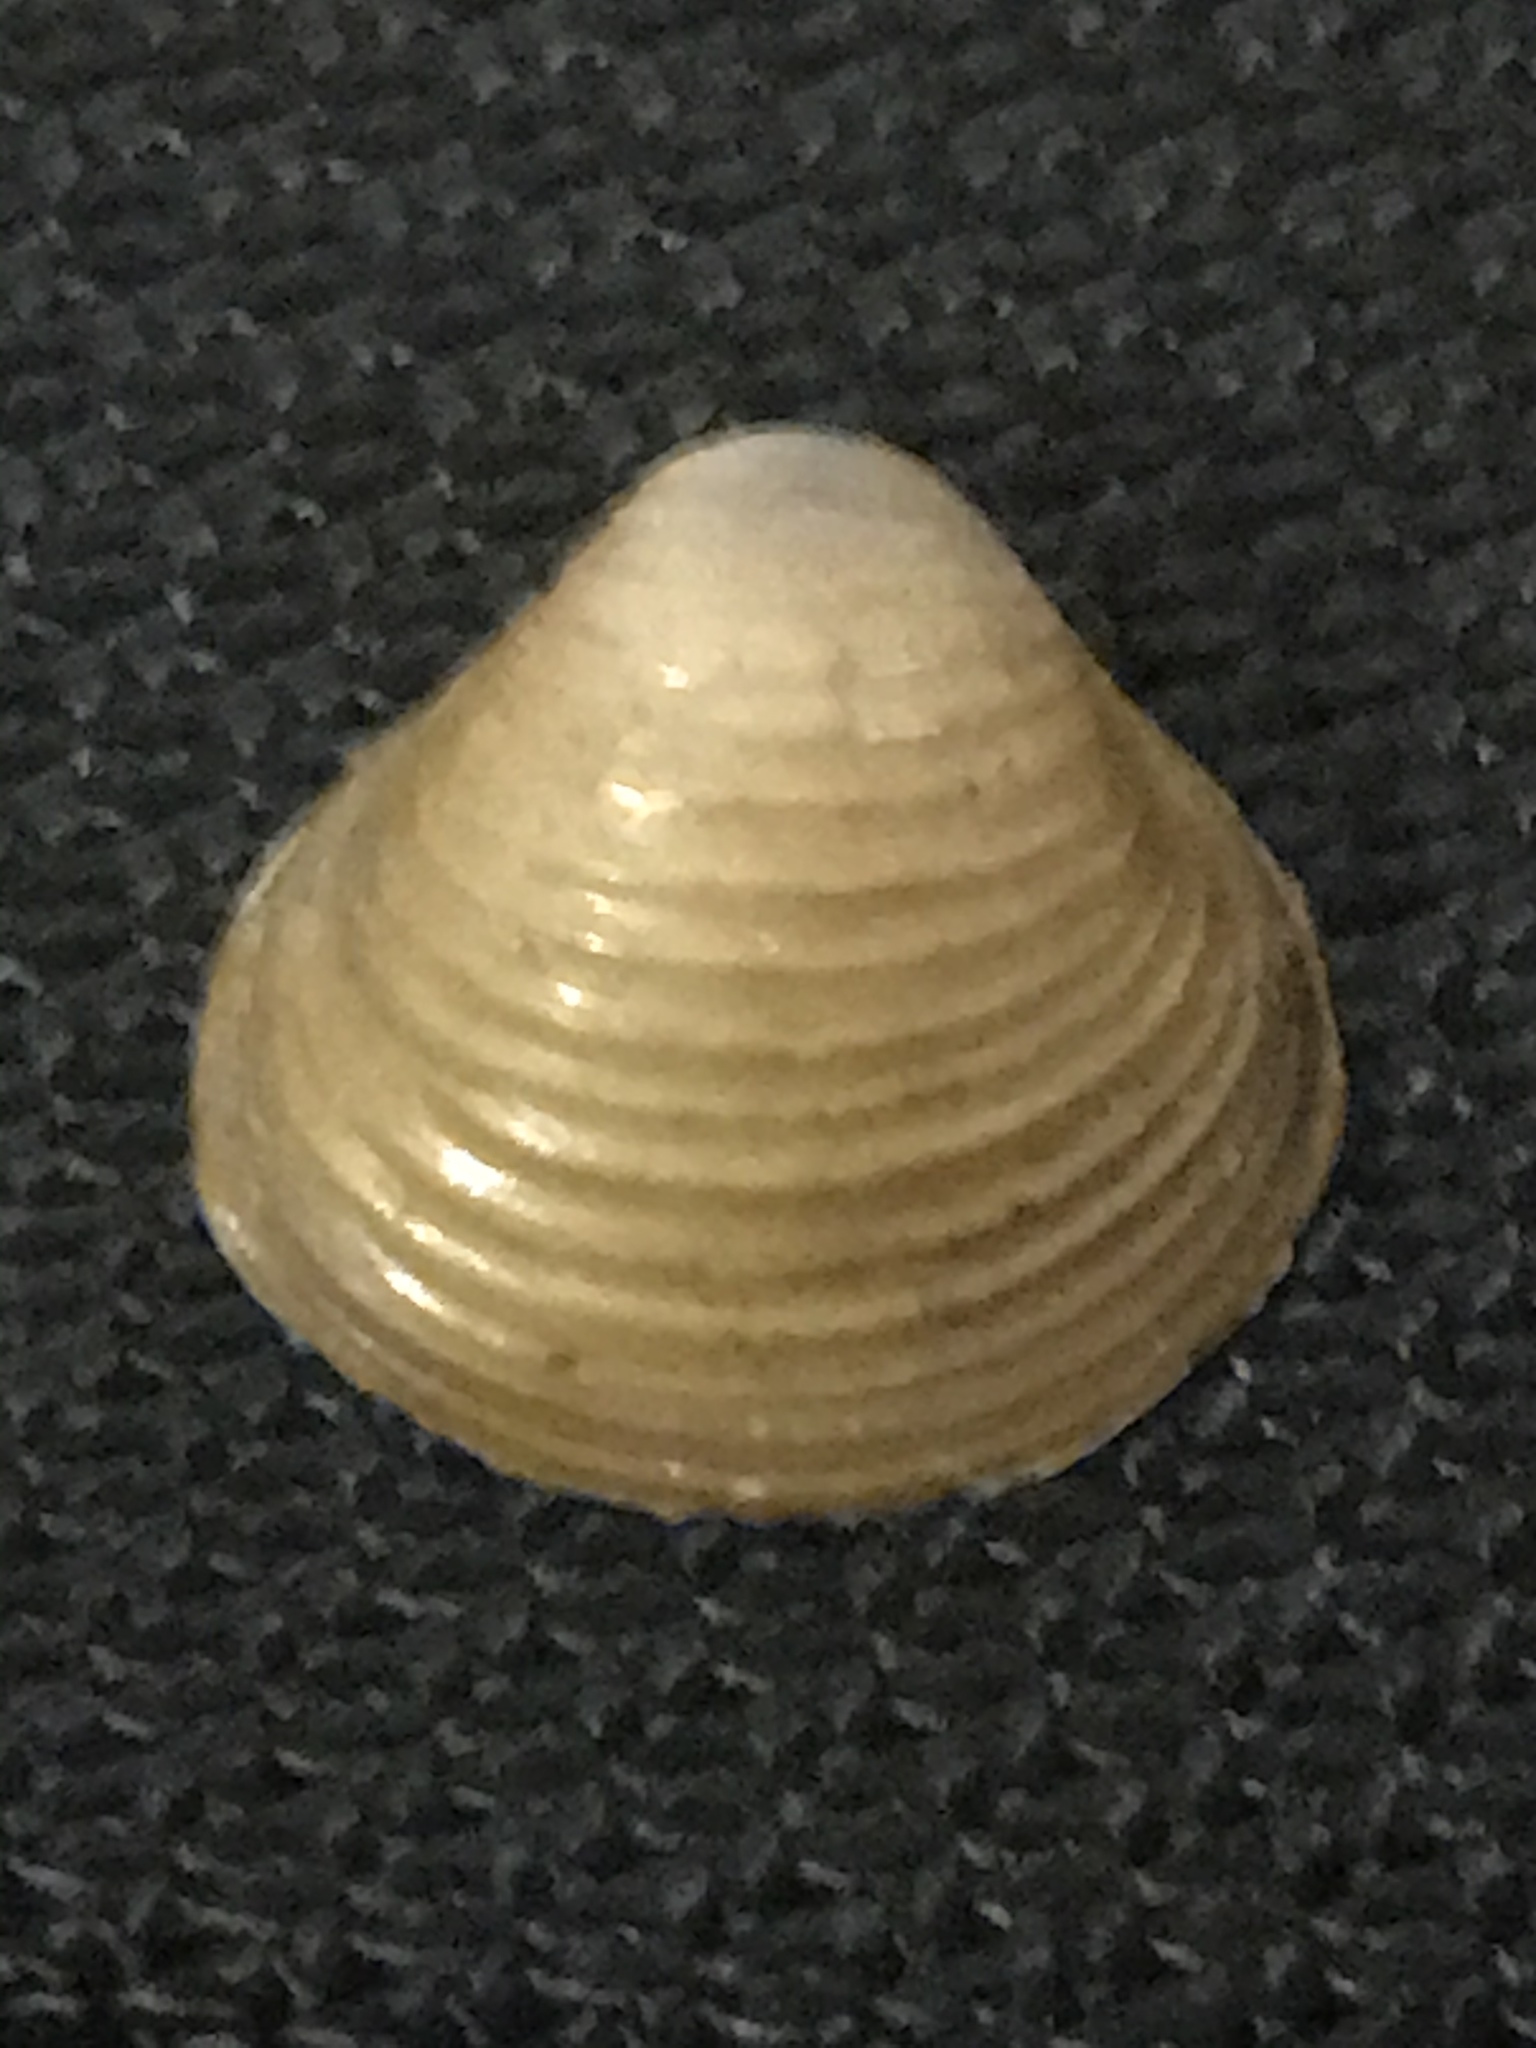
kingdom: Animalia
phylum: Mollusca
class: Bivalvia
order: Venerida
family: Cyrenidae
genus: Corbicula
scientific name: Corbicula fluminea
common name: Asian clam
